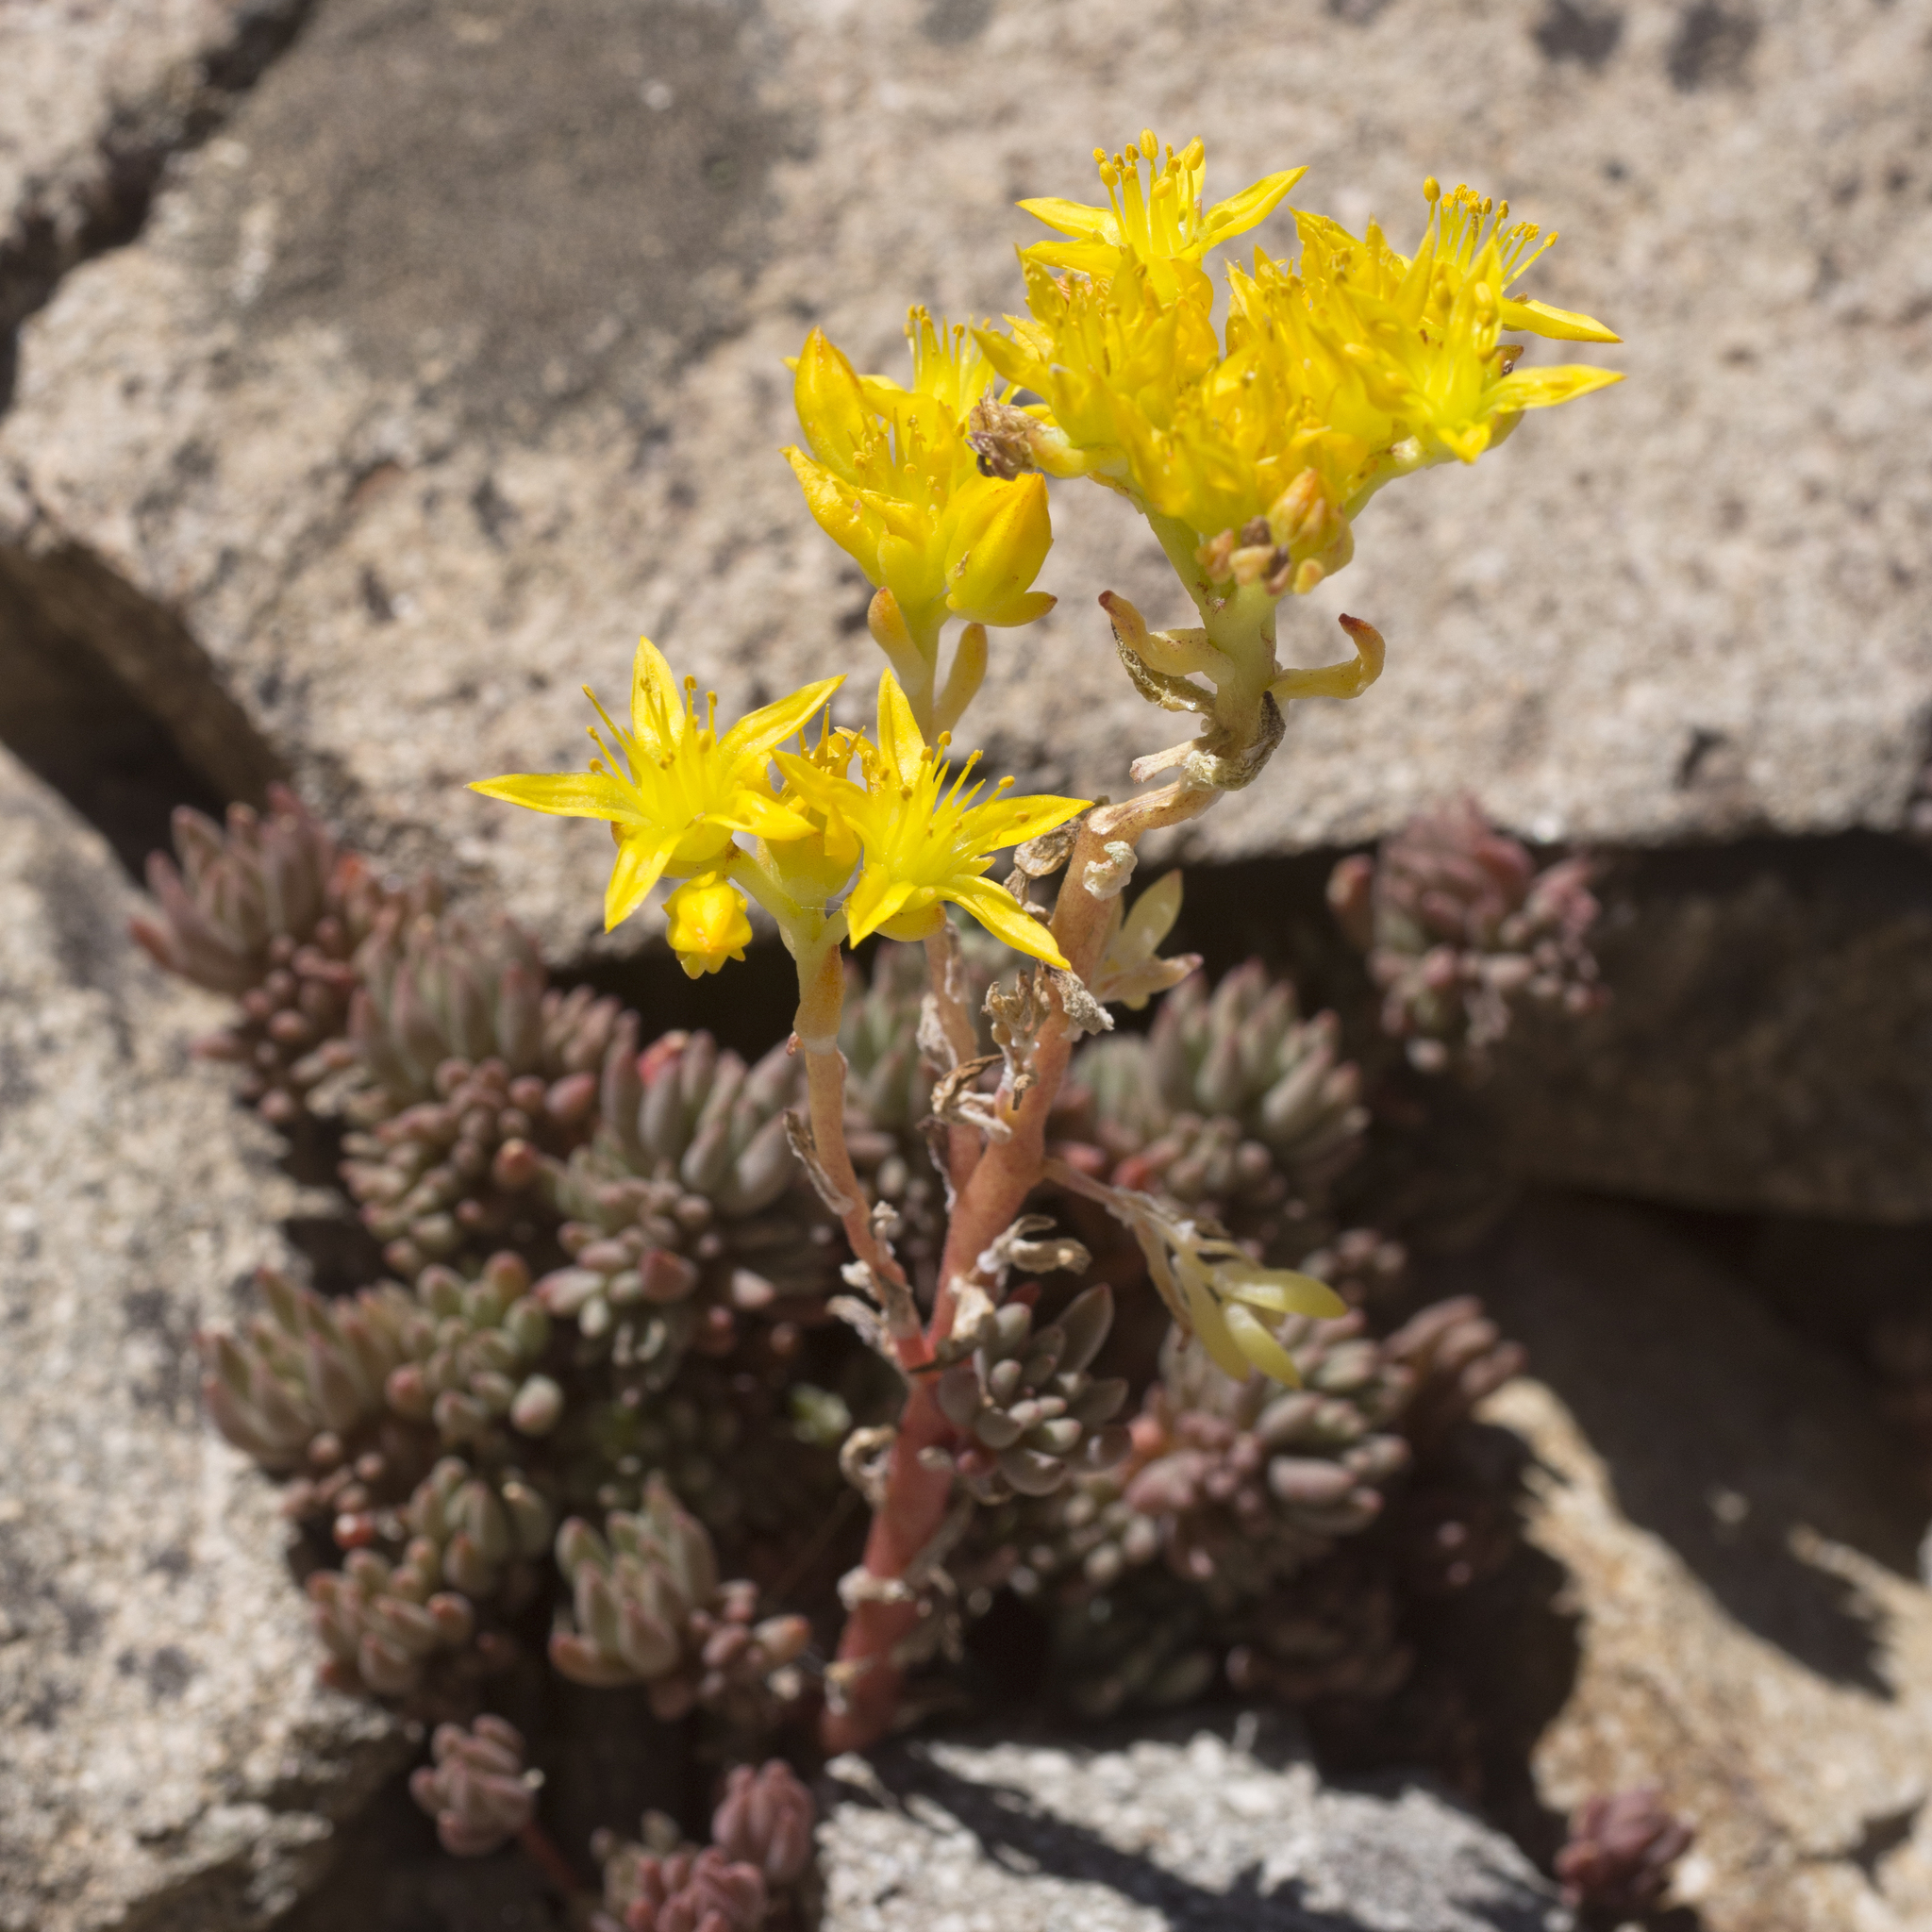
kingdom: Plantae
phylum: Tracheophyta
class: Magnoliopsida
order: Saxifragales
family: Crassulaceae
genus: Sedum
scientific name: Sedum lanceolatum
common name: Common stonecrop
